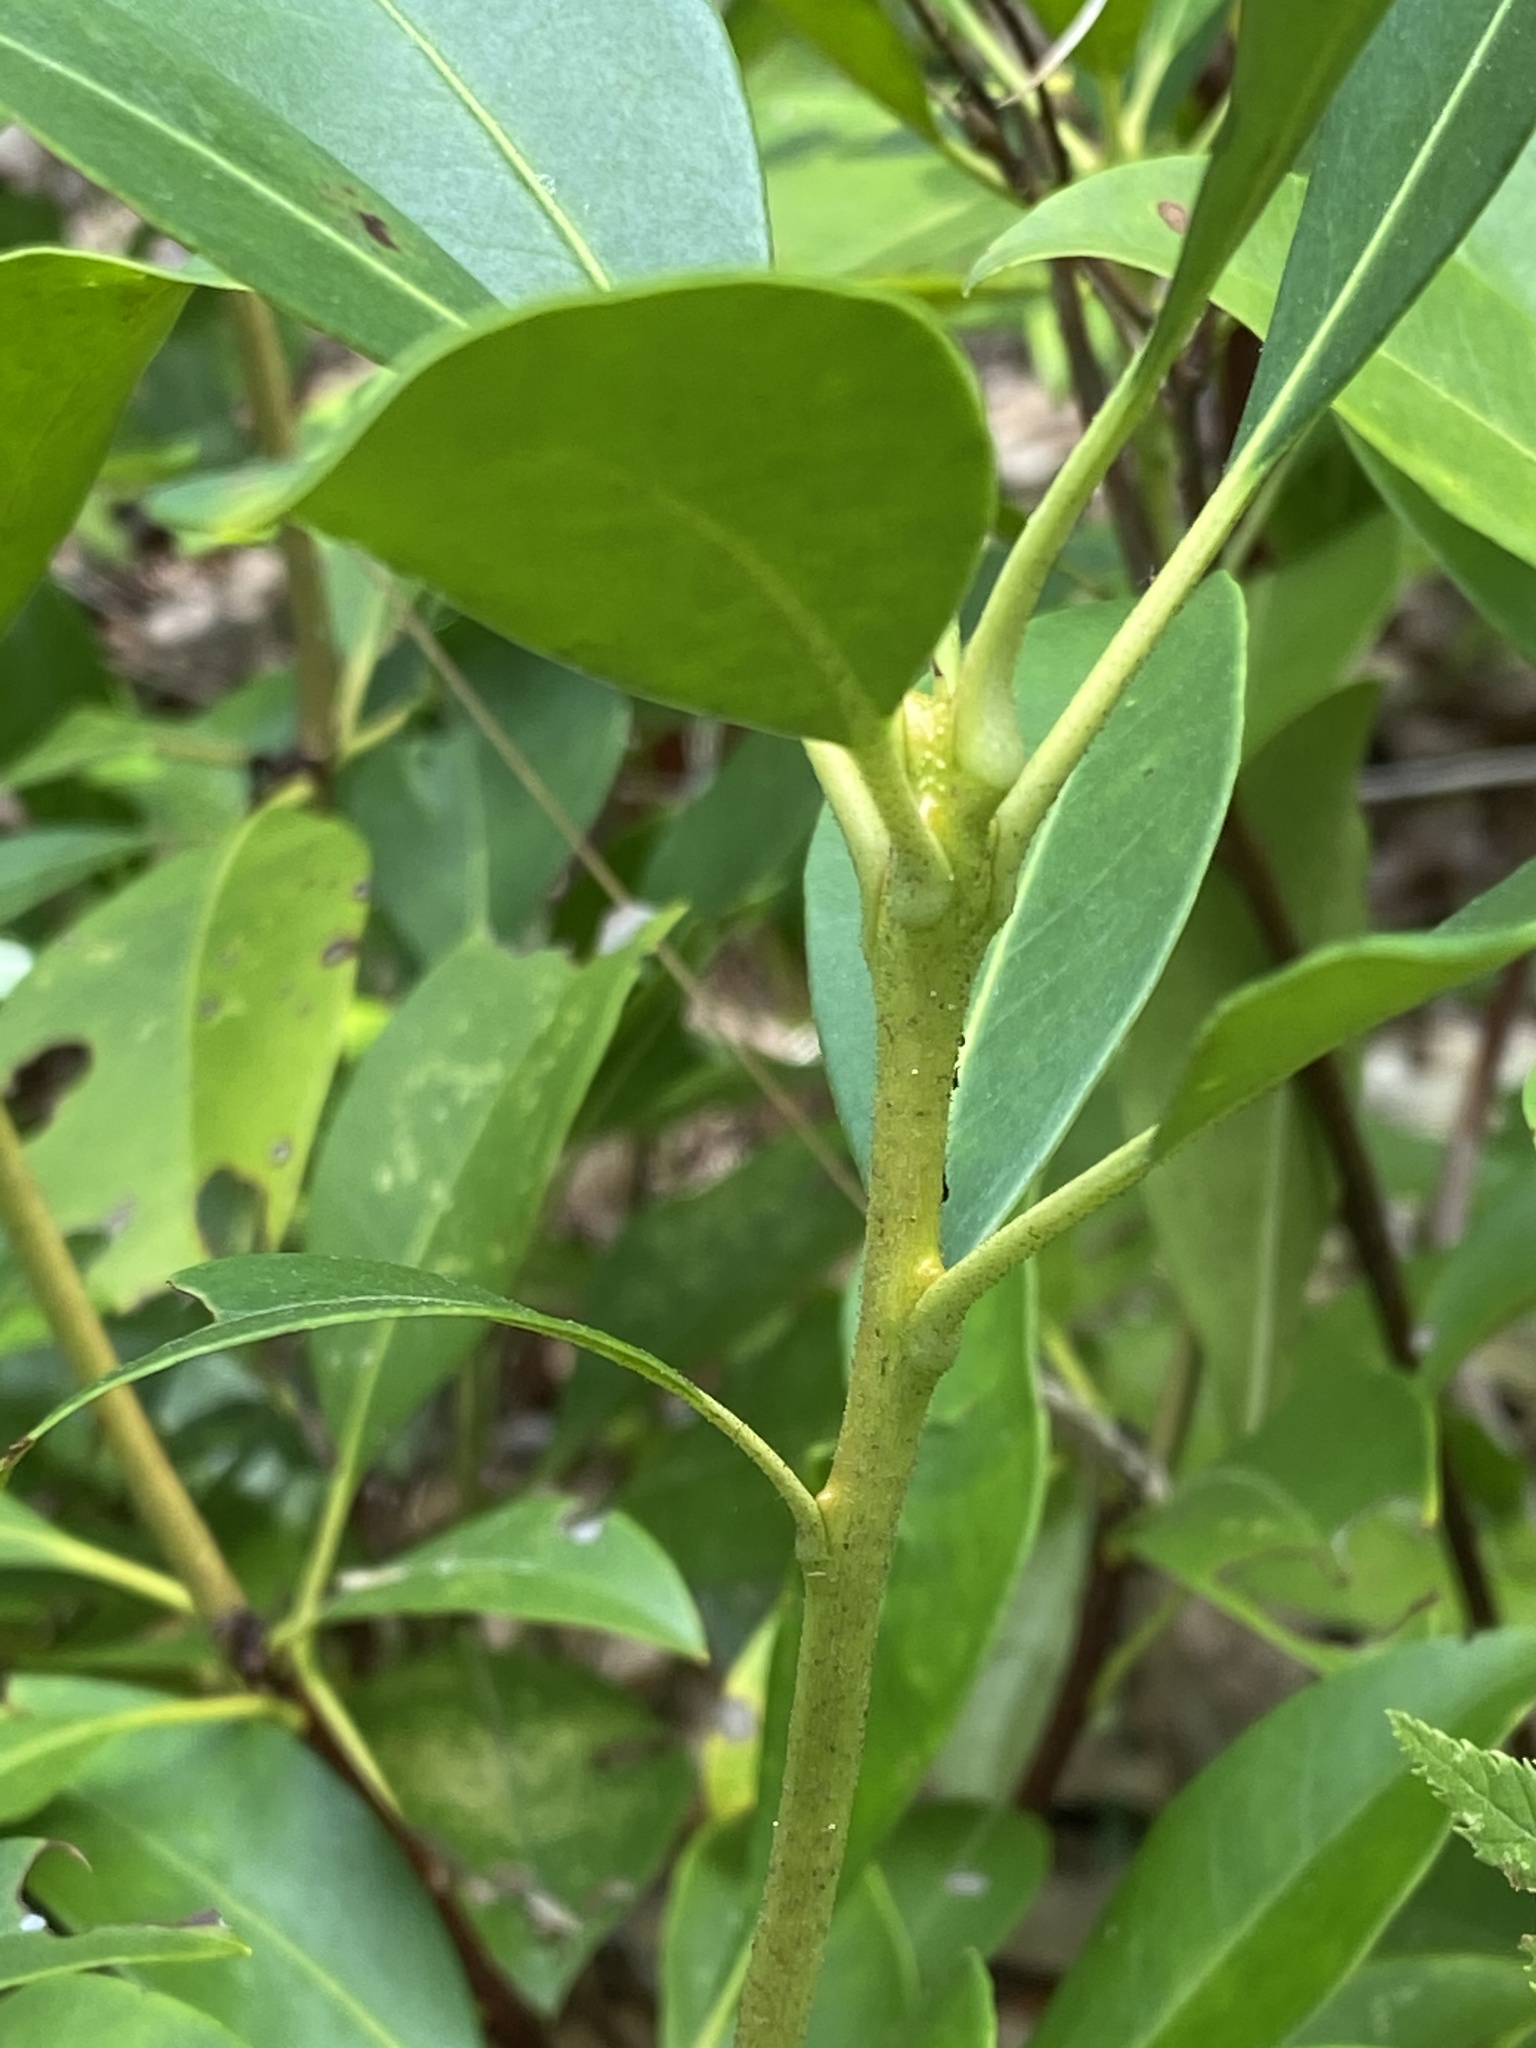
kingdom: Plantae
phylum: Tracheophyta
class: Magnoliopsida
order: Ericales
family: Ericaceae
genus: Kalmia
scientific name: Kalmia latifolia
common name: Mountain-laurel
